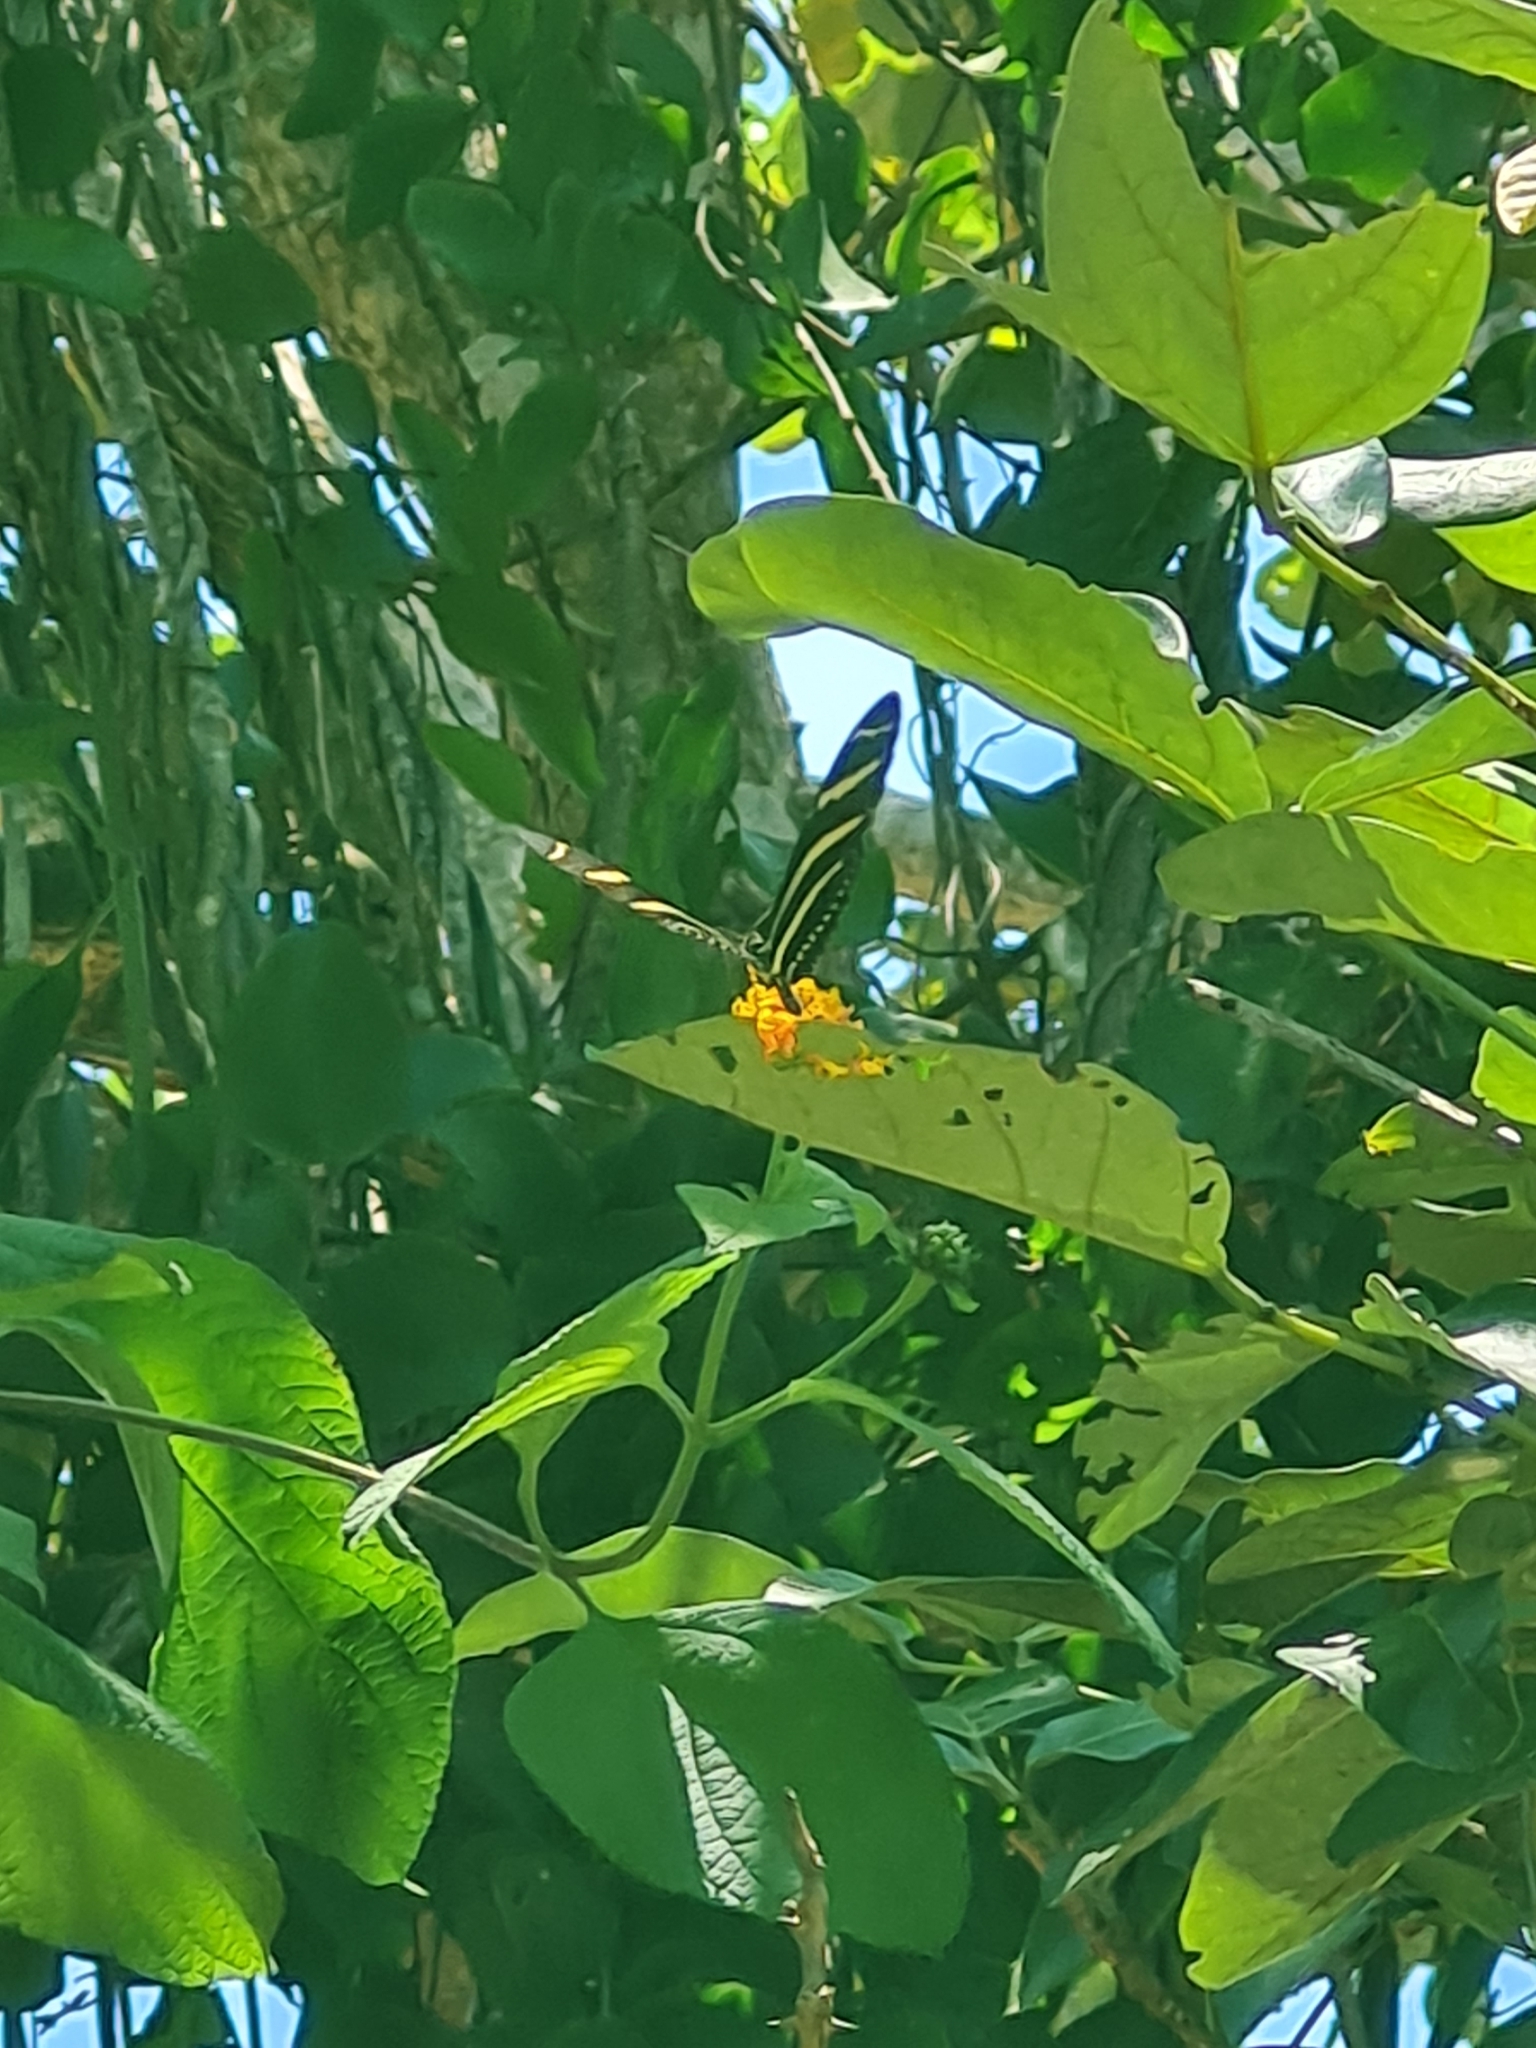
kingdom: Animalia
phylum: Arthropoda
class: Insecta
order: Lepidoptera
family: Nymphalidae
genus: Heliconius
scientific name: Heliconius charithonia
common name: Zebra long wing
